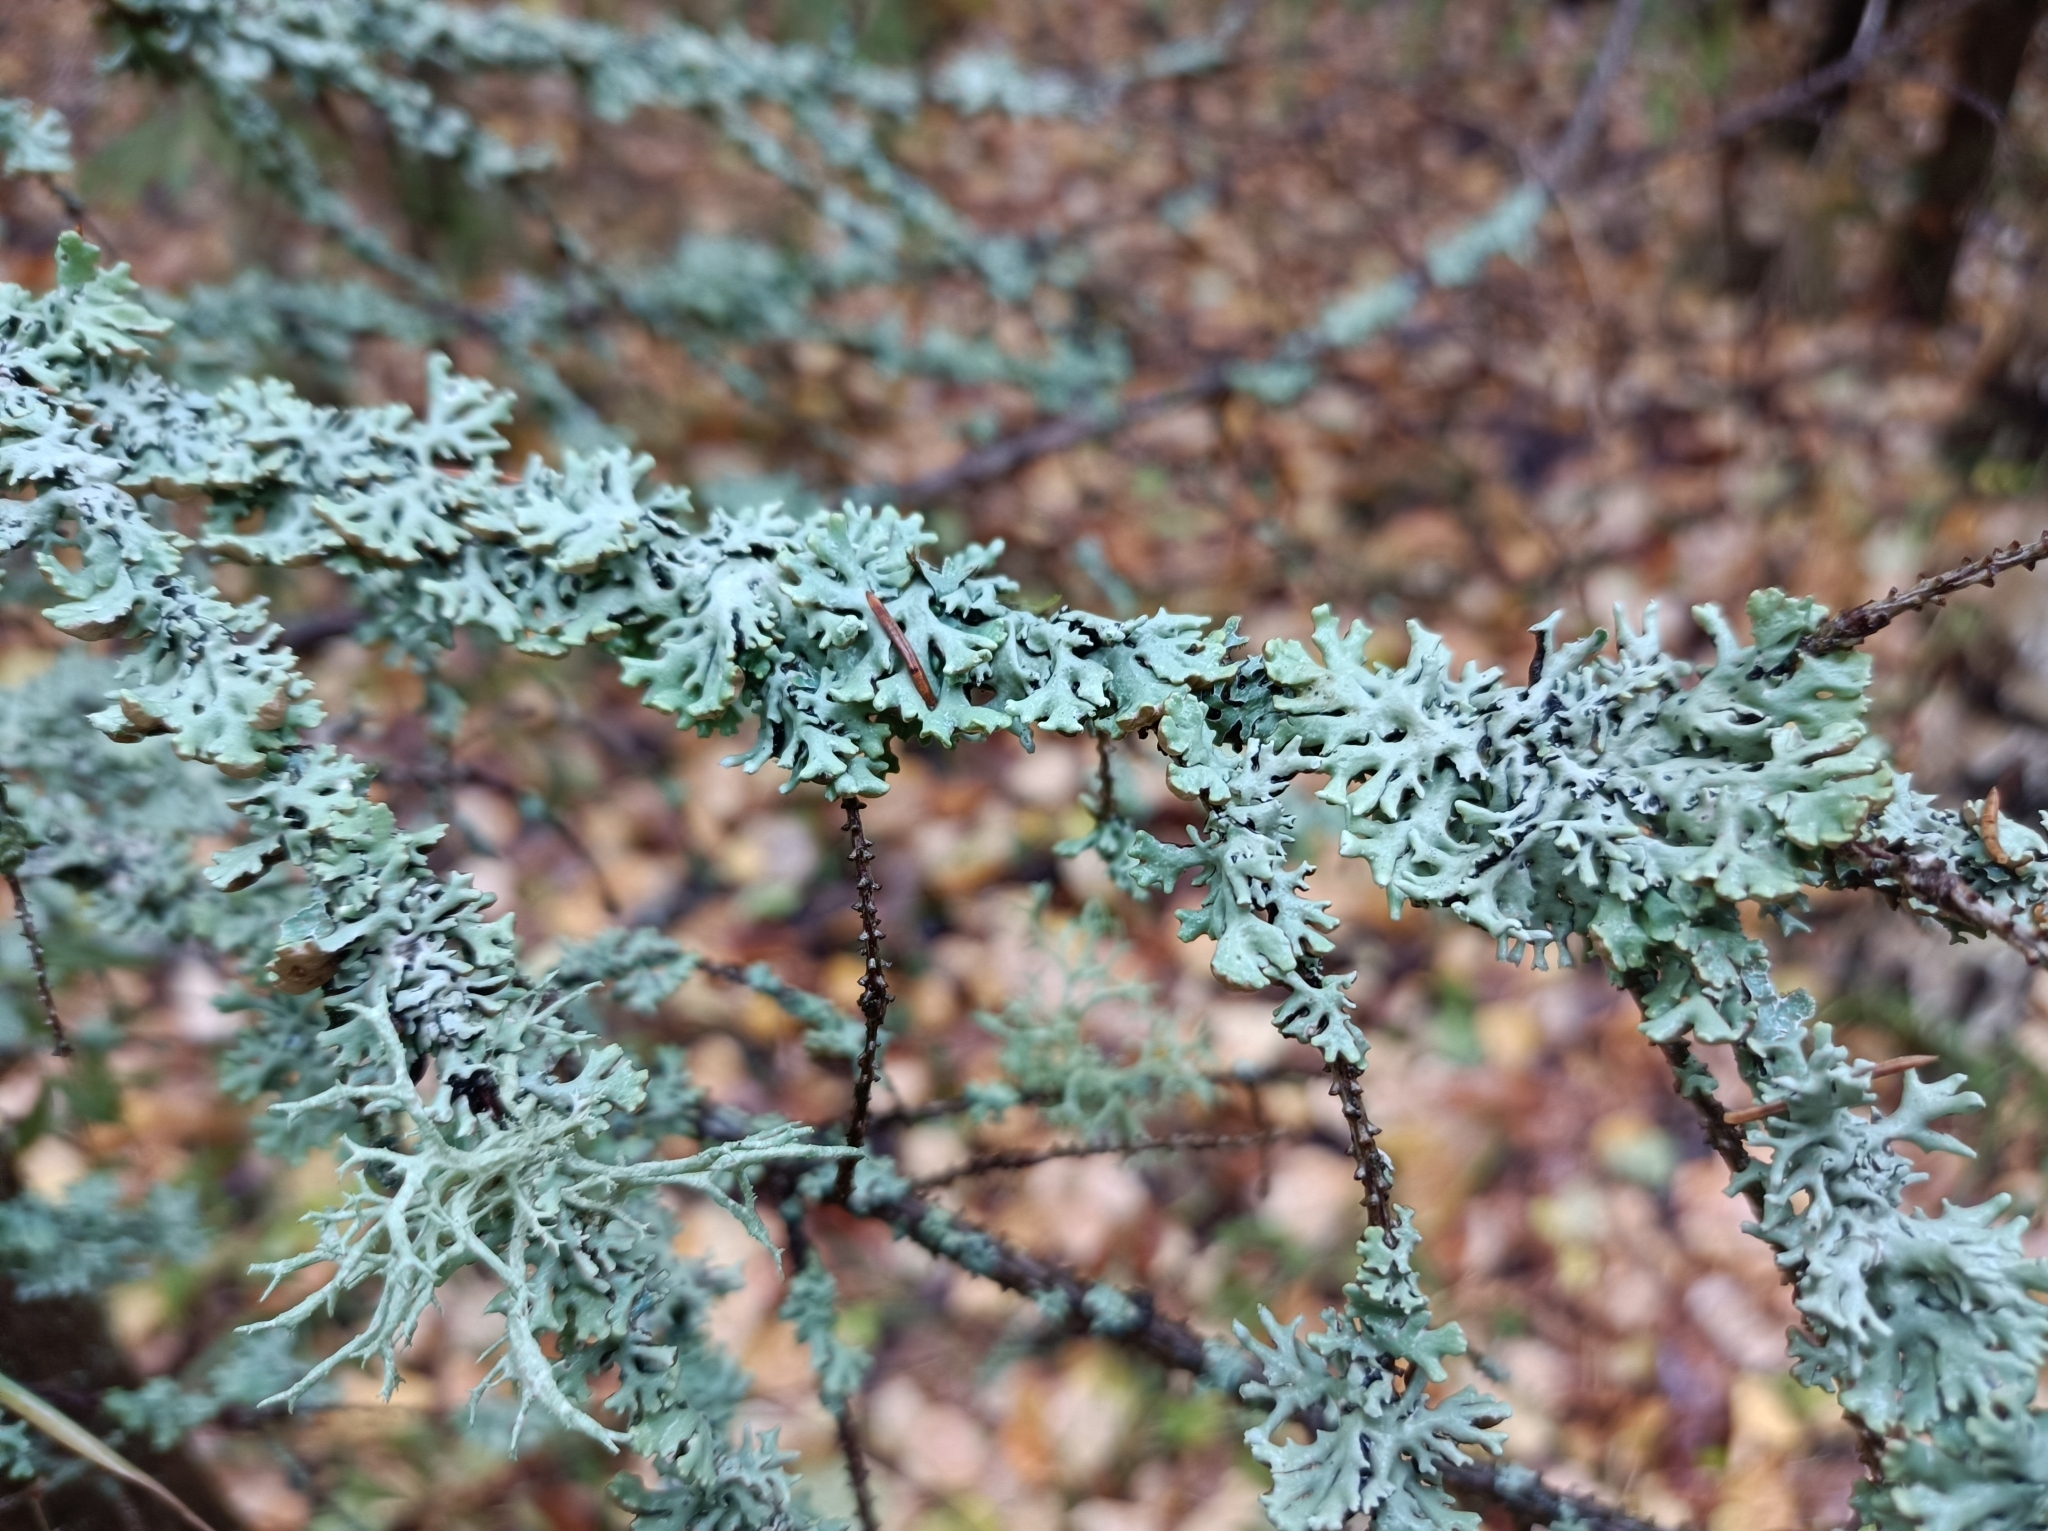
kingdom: Fungi
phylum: Ascomycota
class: Lecanoromycetes
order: Lecanorales
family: Parmeliaceae
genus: Hypogymnia
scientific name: Hypogymnia physodes
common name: Dark crottle
